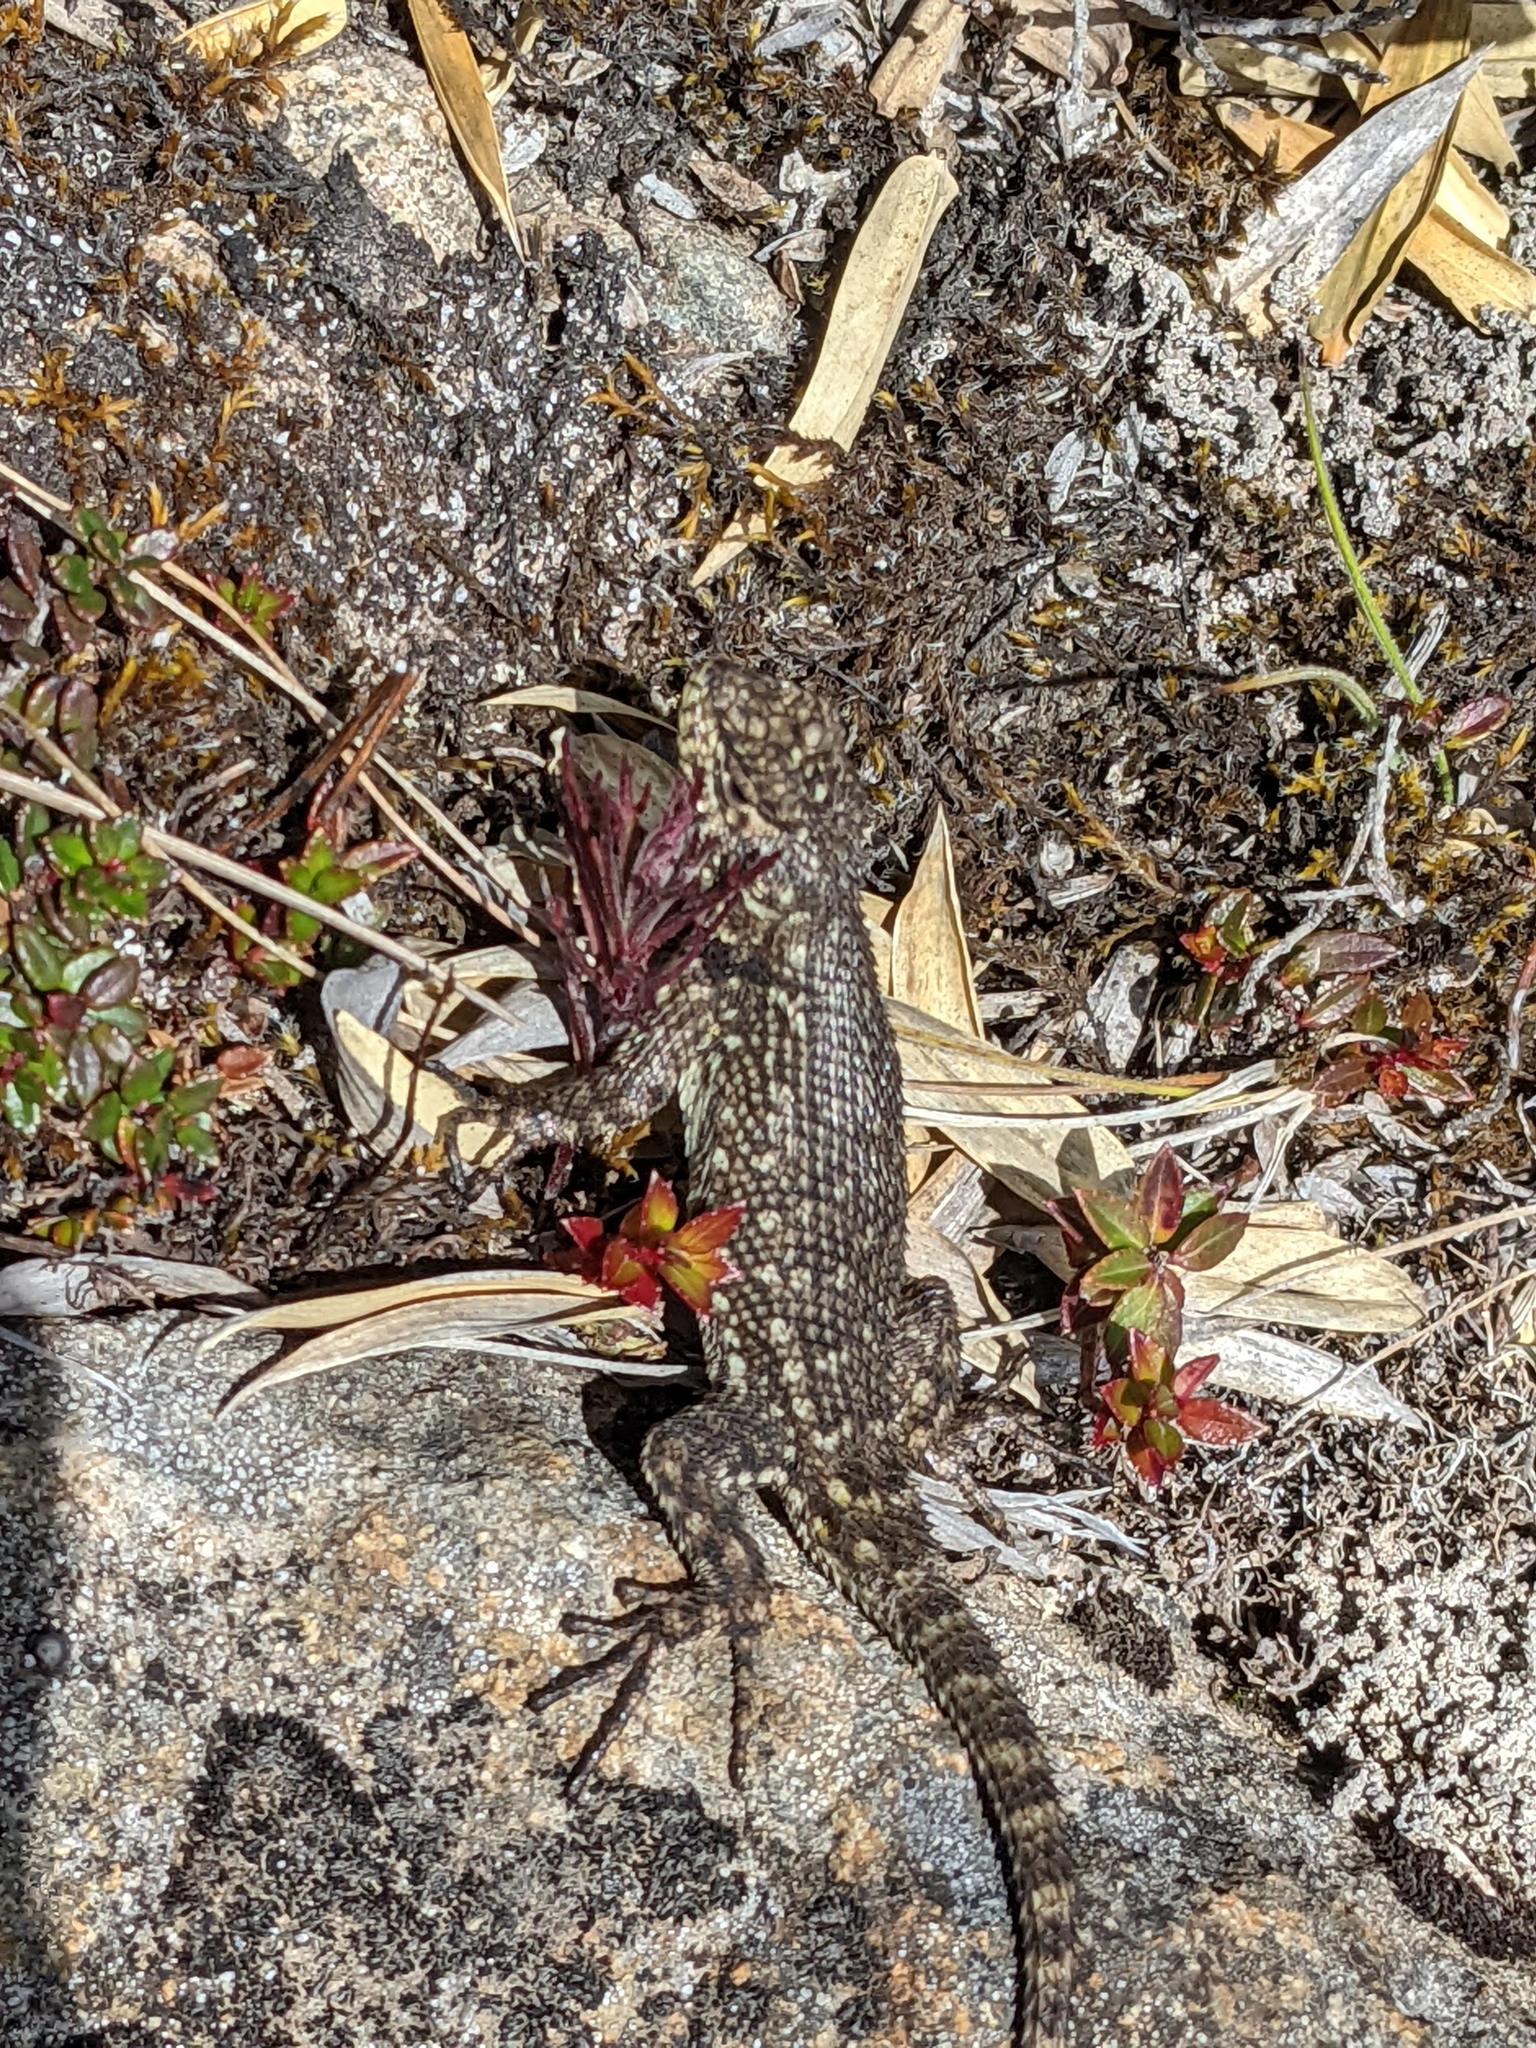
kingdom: Animalia
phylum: Chordata
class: Squamata
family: Phrynosomatidae
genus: Sceloporus
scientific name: Sceloporus malachiticus
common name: Green spiny lizard
